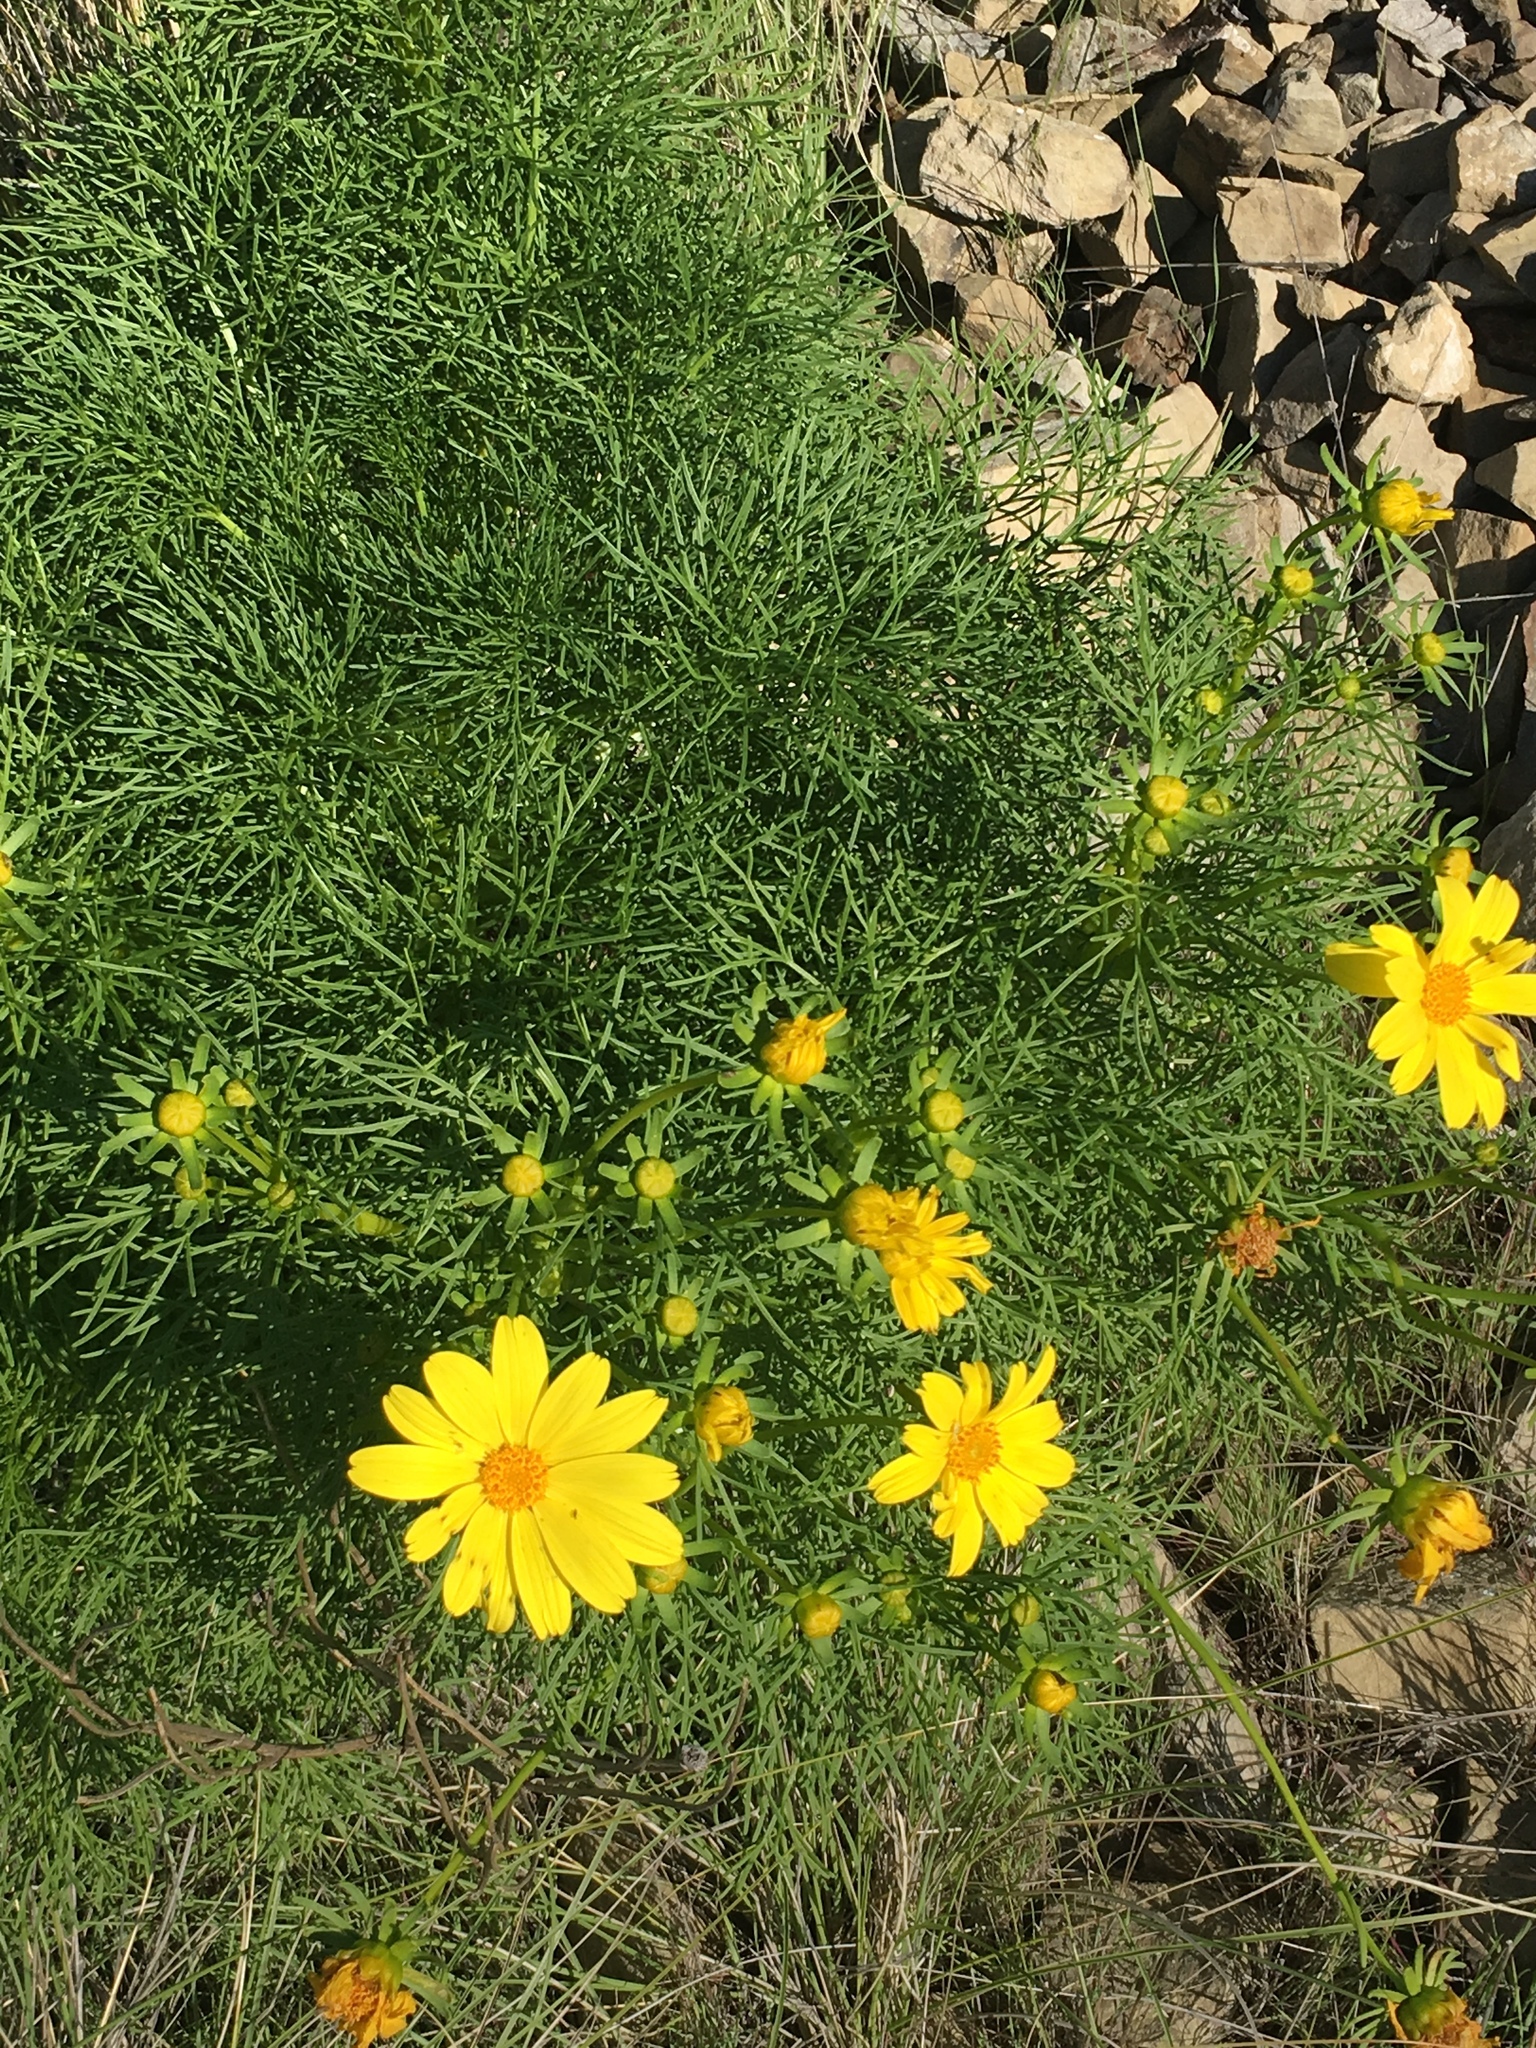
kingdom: Plantae
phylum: Tracheophyta
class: Magnoliopsida
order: Asterales
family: Asteraceae
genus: Coreopsis
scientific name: Coreopsis gigantea
